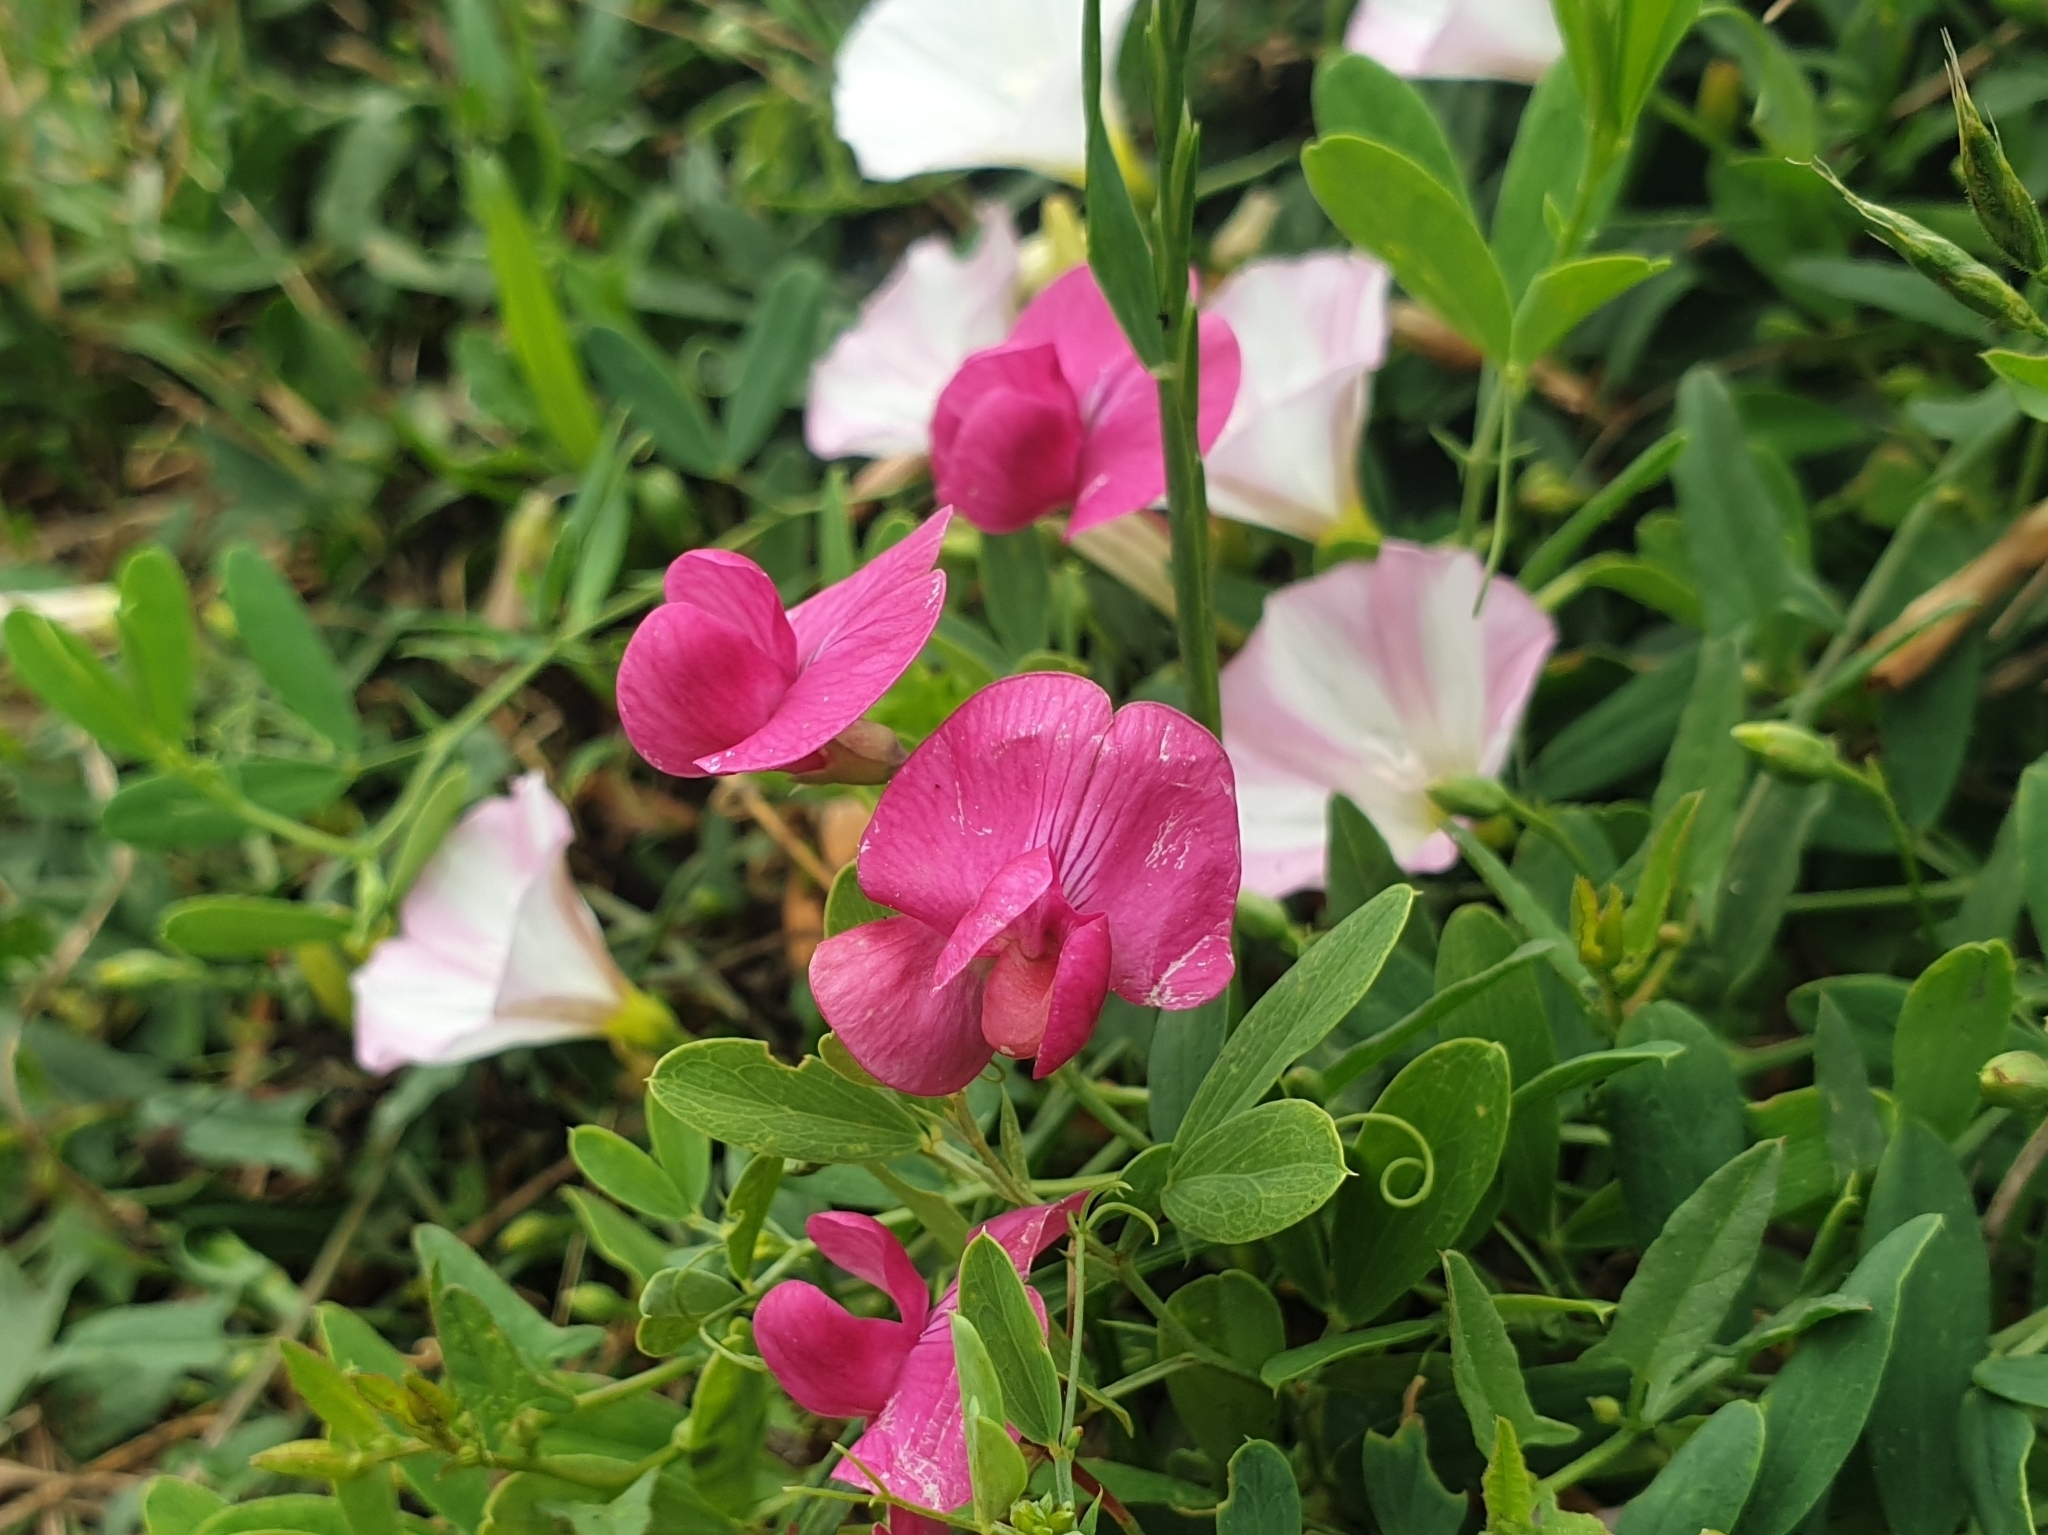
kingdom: Plantae
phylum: Tracheophyta
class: Magnoliopsida
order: Fabales
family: Fabaceae
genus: Lathyrus
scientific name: Lathyrus tuberosus
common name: Tuberous pea
